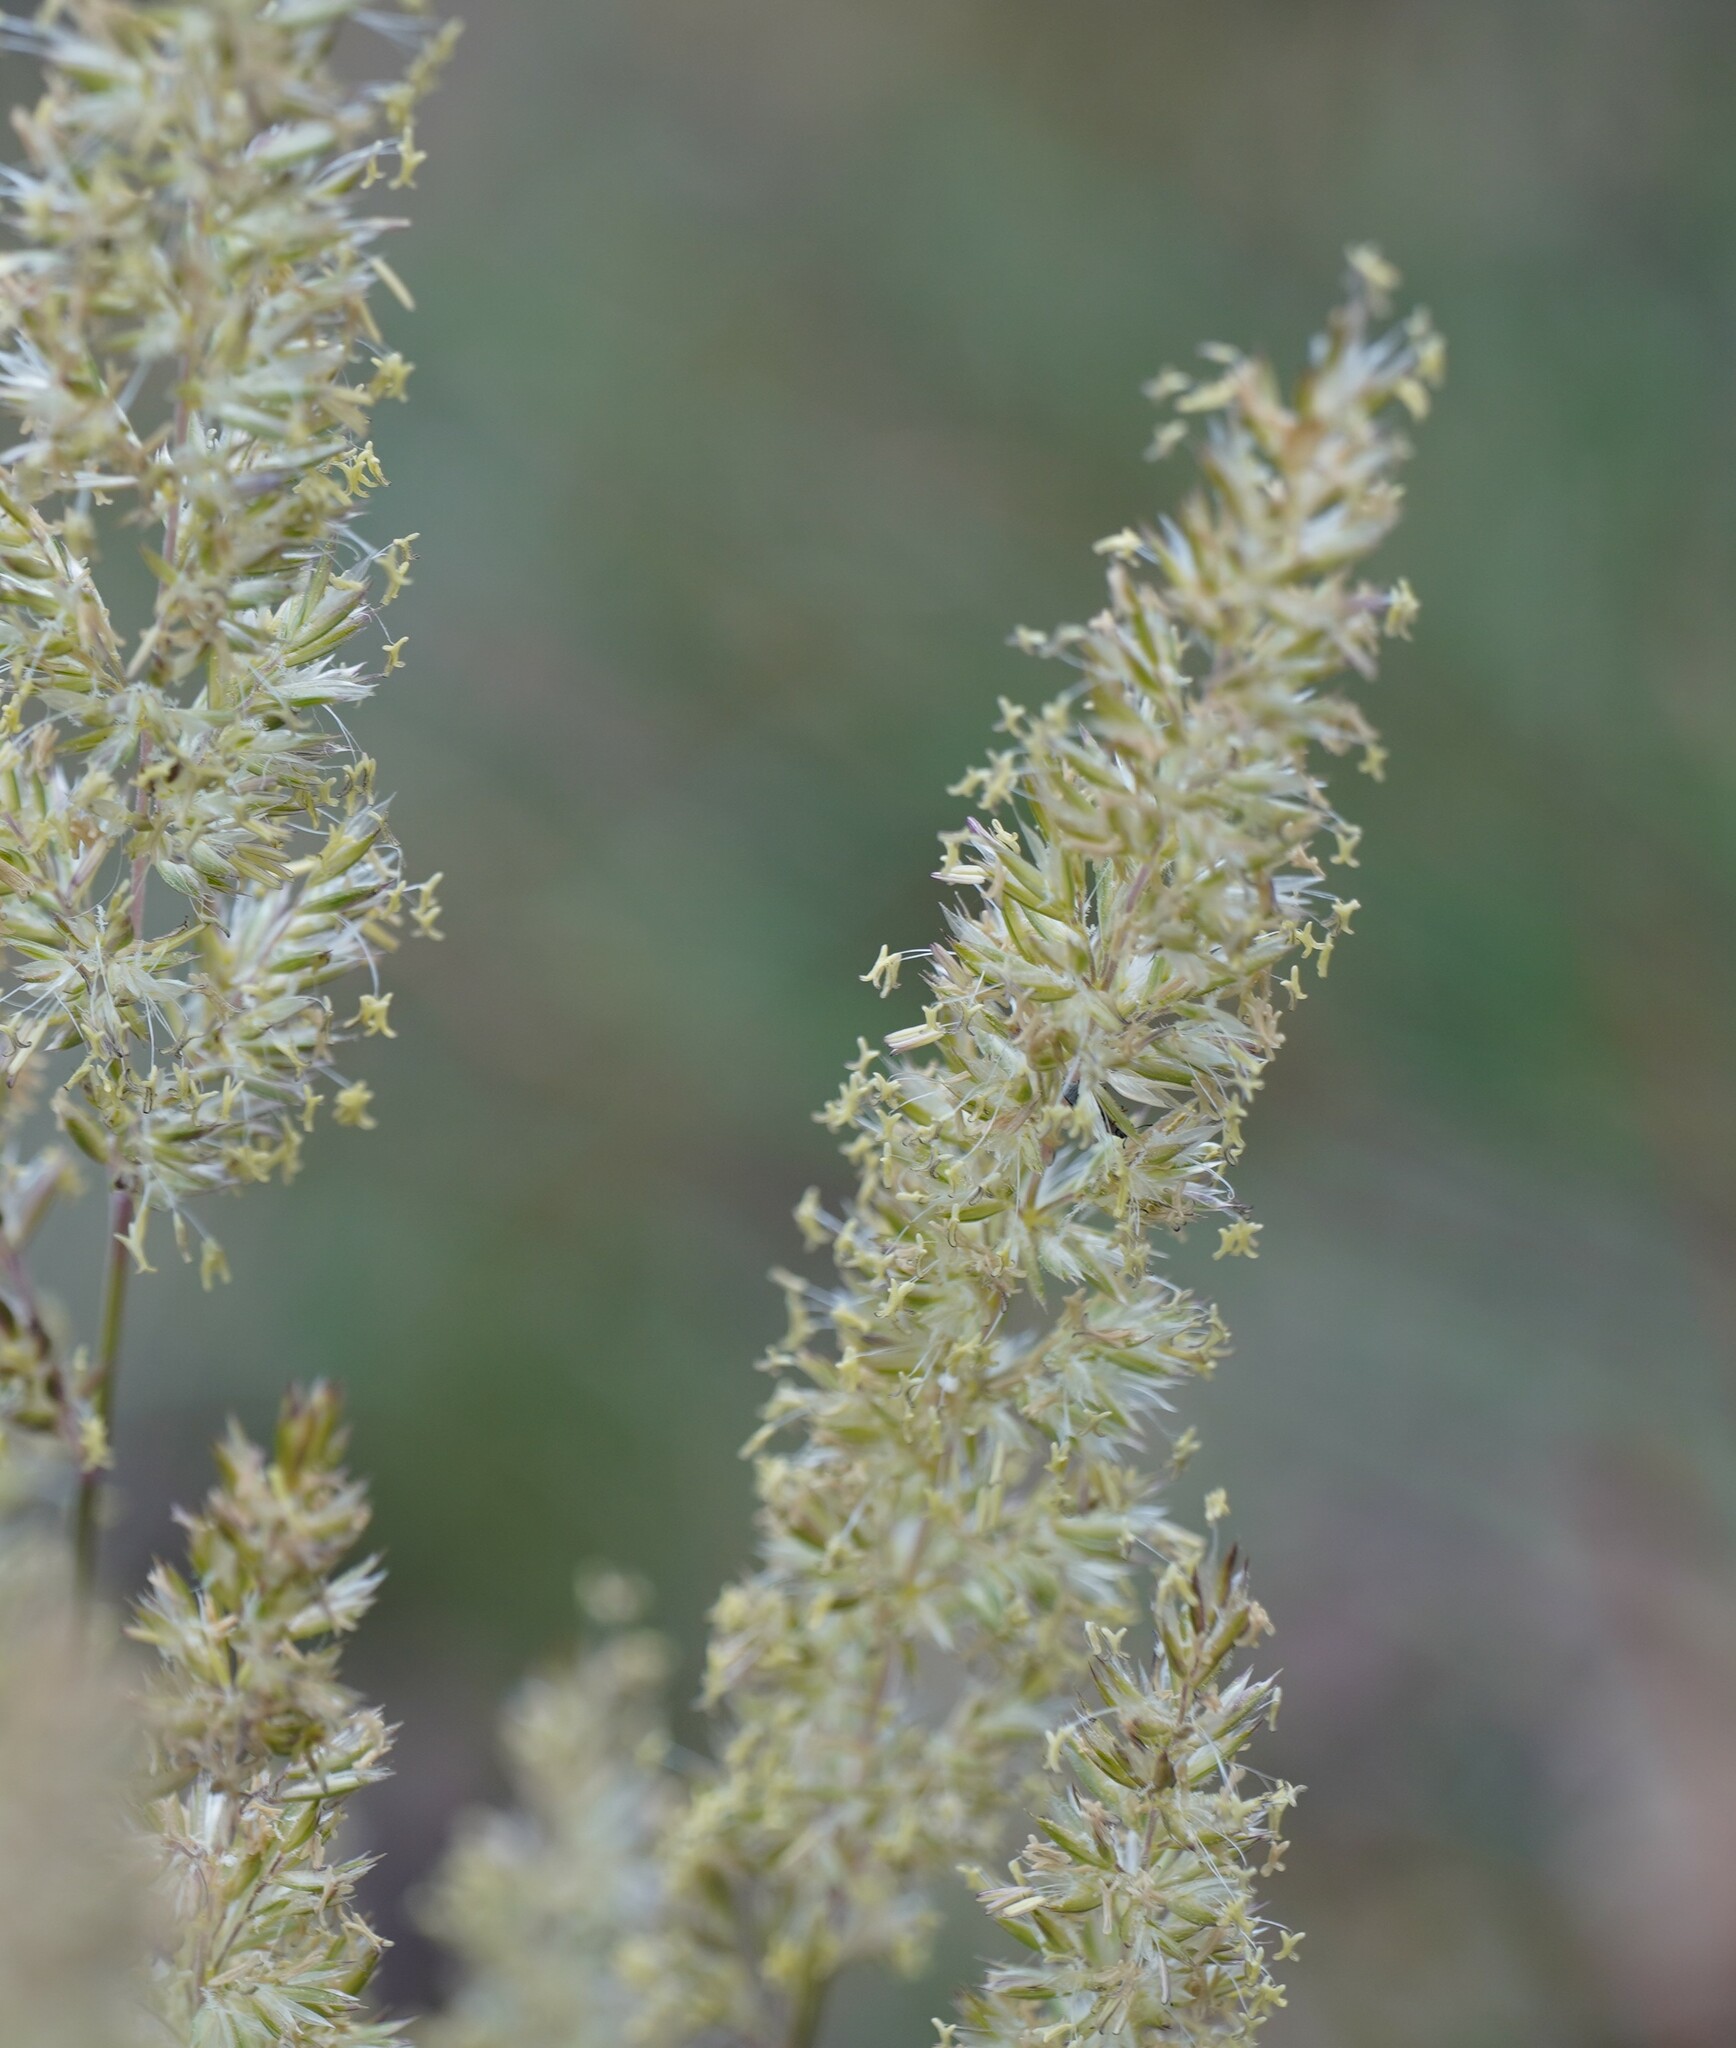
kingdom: Plantae
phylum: Tracheophyta
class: Liliopsida
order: Poales
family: Poaceae
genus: Koeleria
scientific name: Koeleria macrantha
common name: Crested hair-grass
